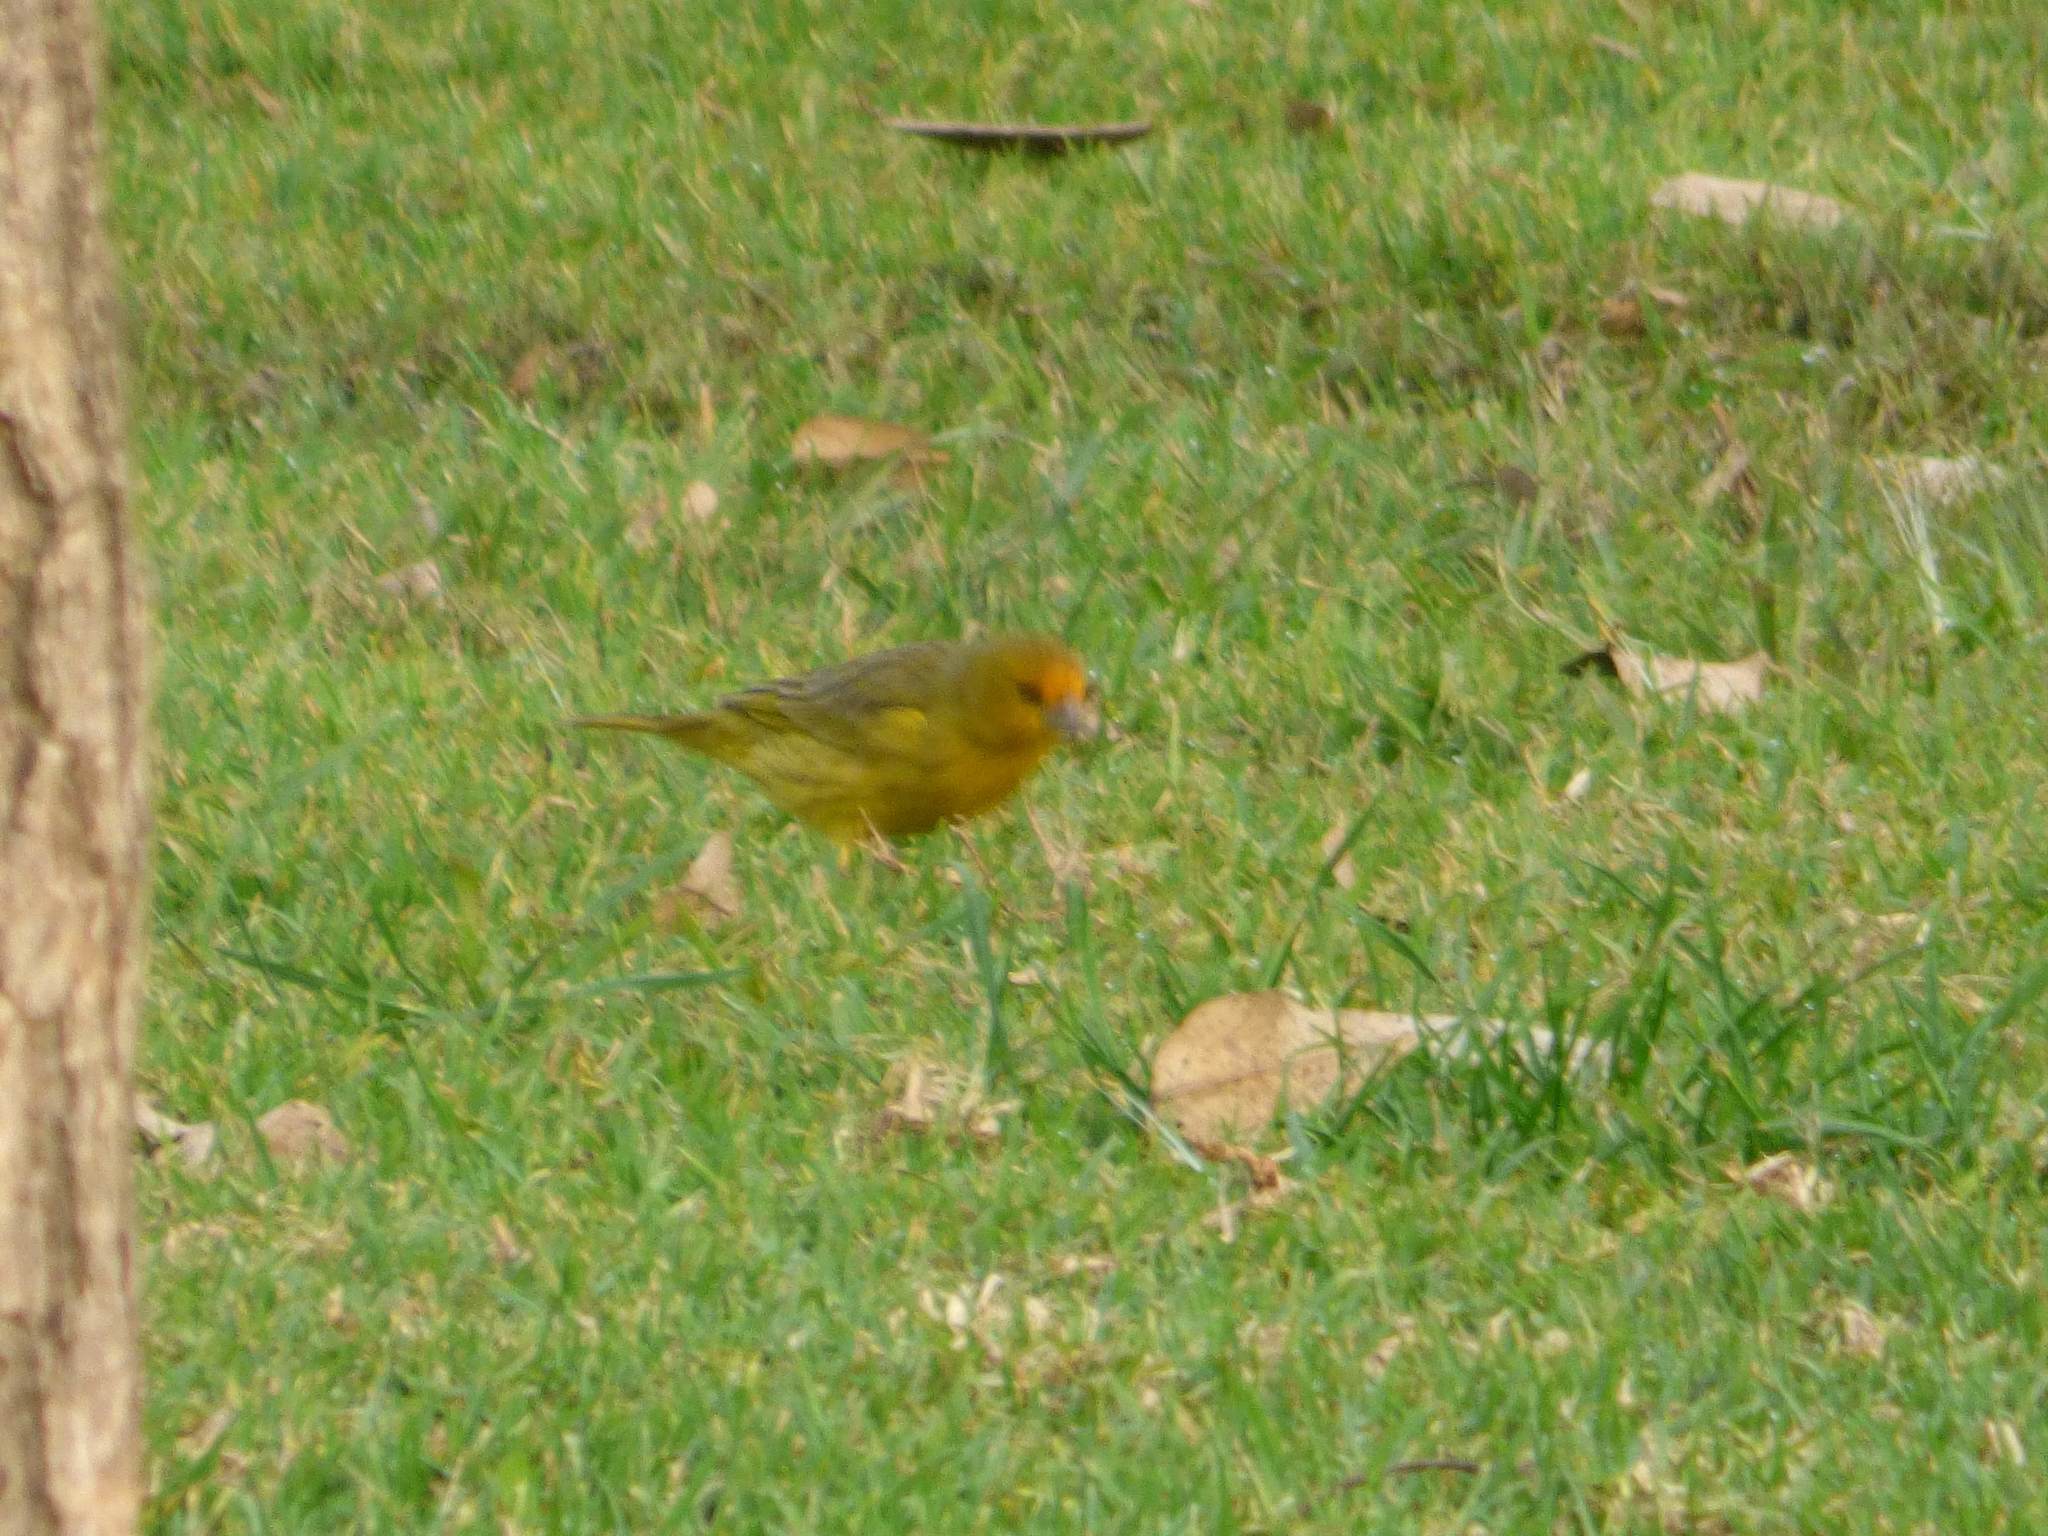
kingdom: Animalia
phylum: Chordata
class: Aves
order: Passeriformes
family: Thraupidae
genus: Sicalis
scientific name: Sicalis flaveola
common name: Saffron finch
